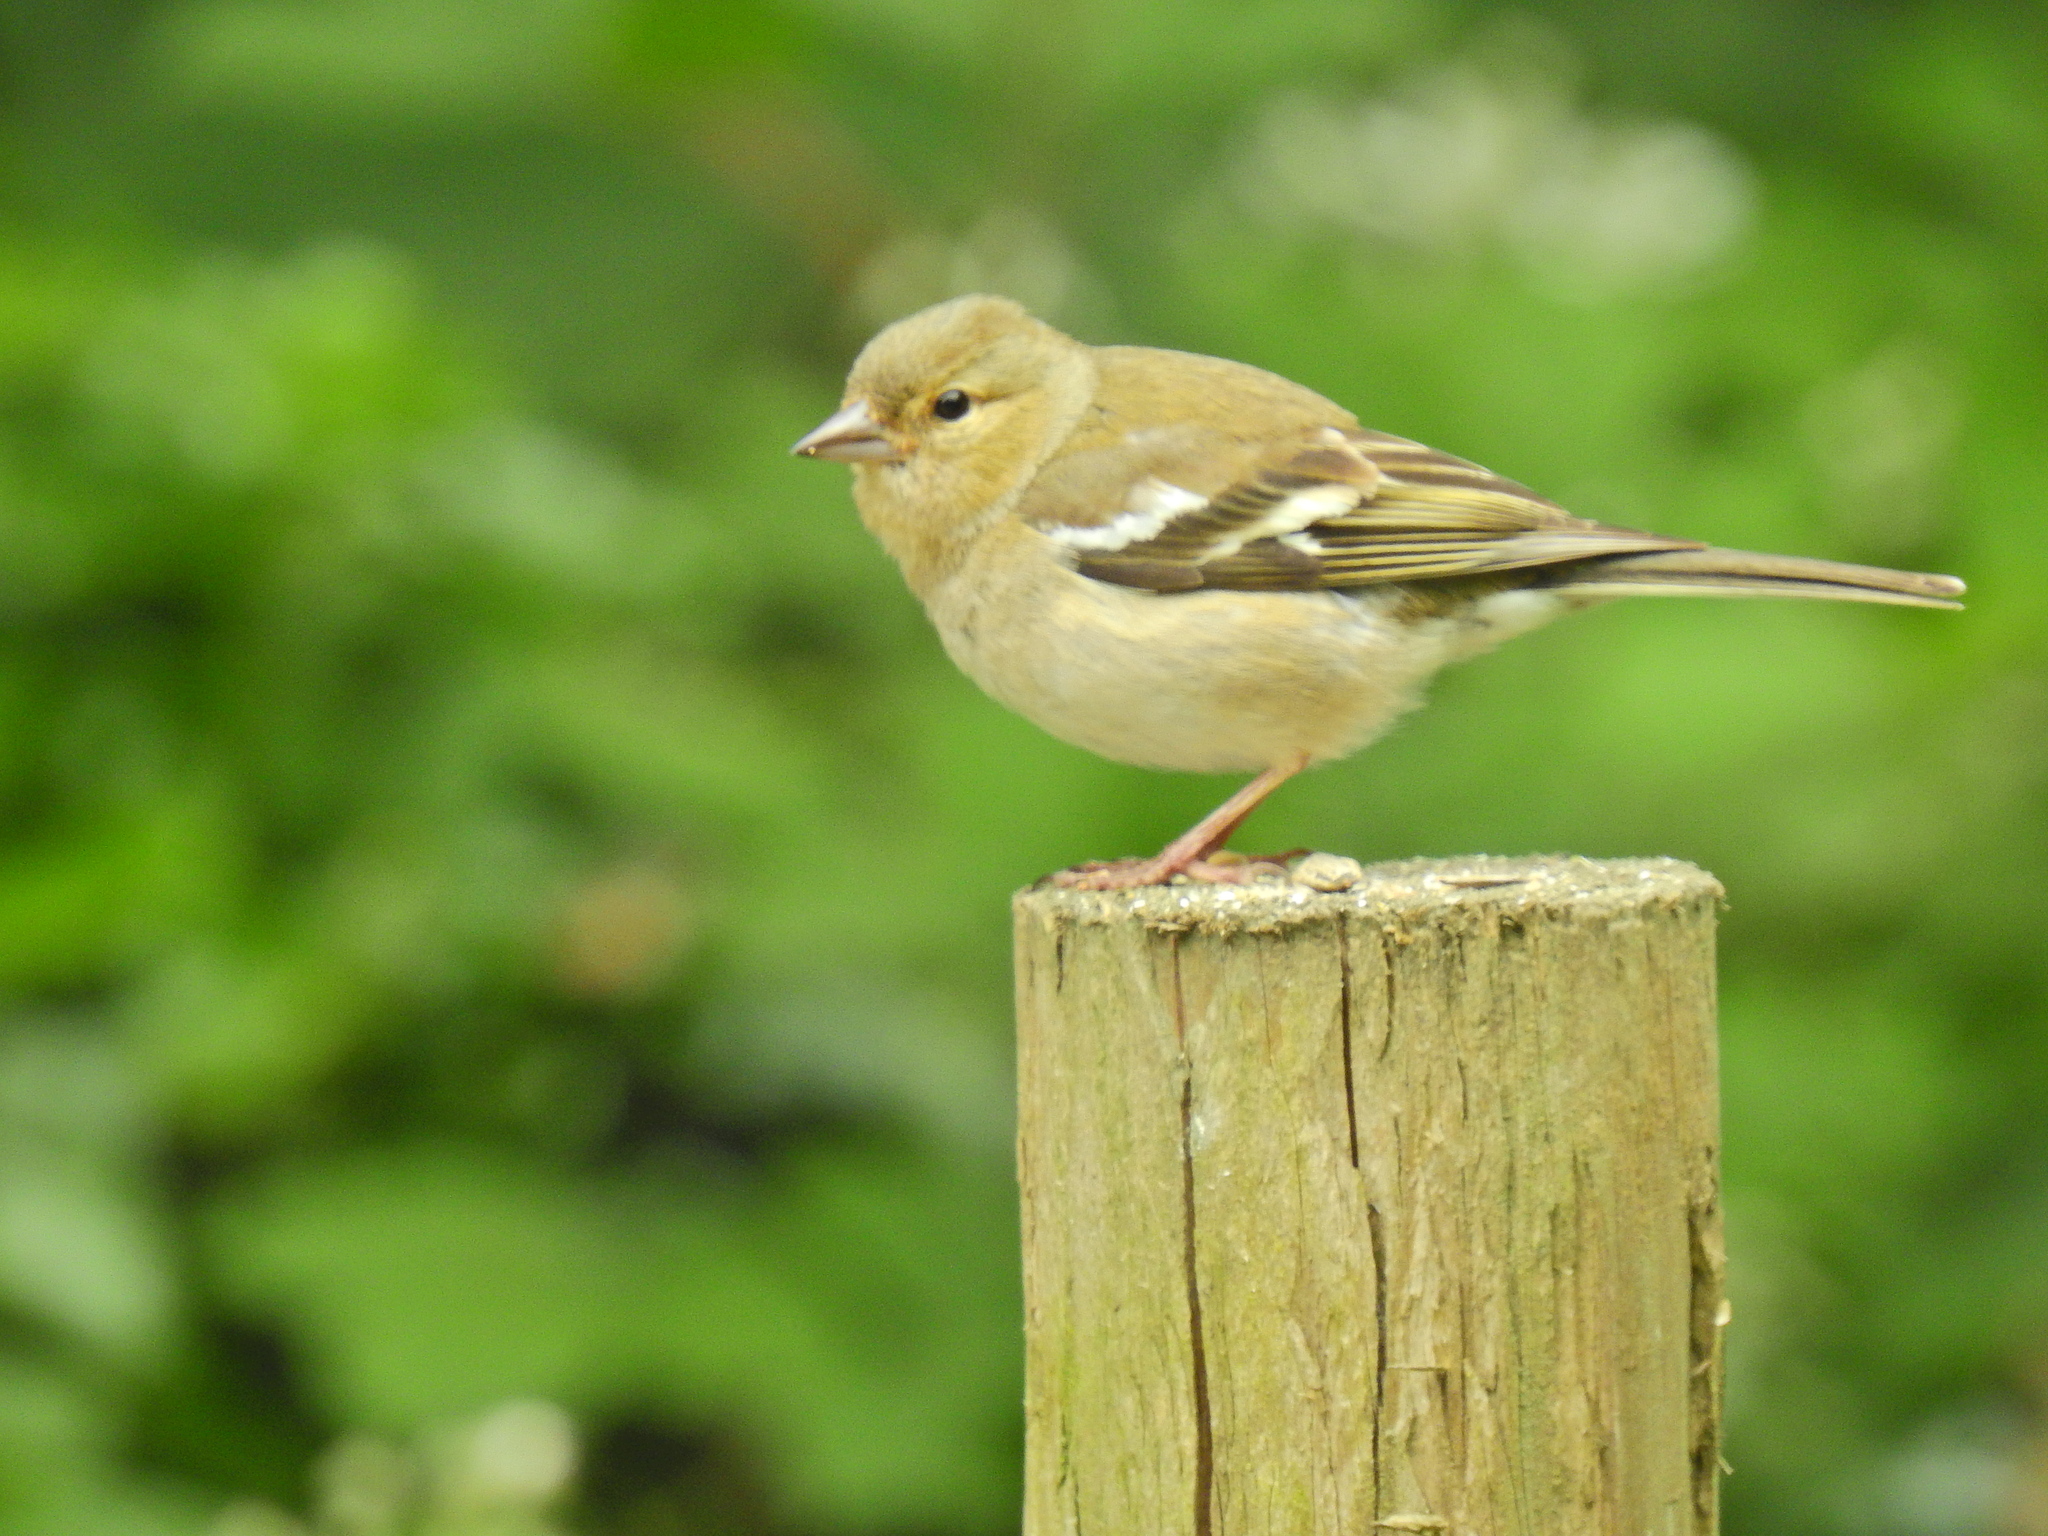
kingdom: Animalia
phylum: Chordata
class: Aves
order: Passeriformes
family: Fringillidae
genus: Fringilla
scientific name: Fringilla coelebs
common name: Common chaffinch
